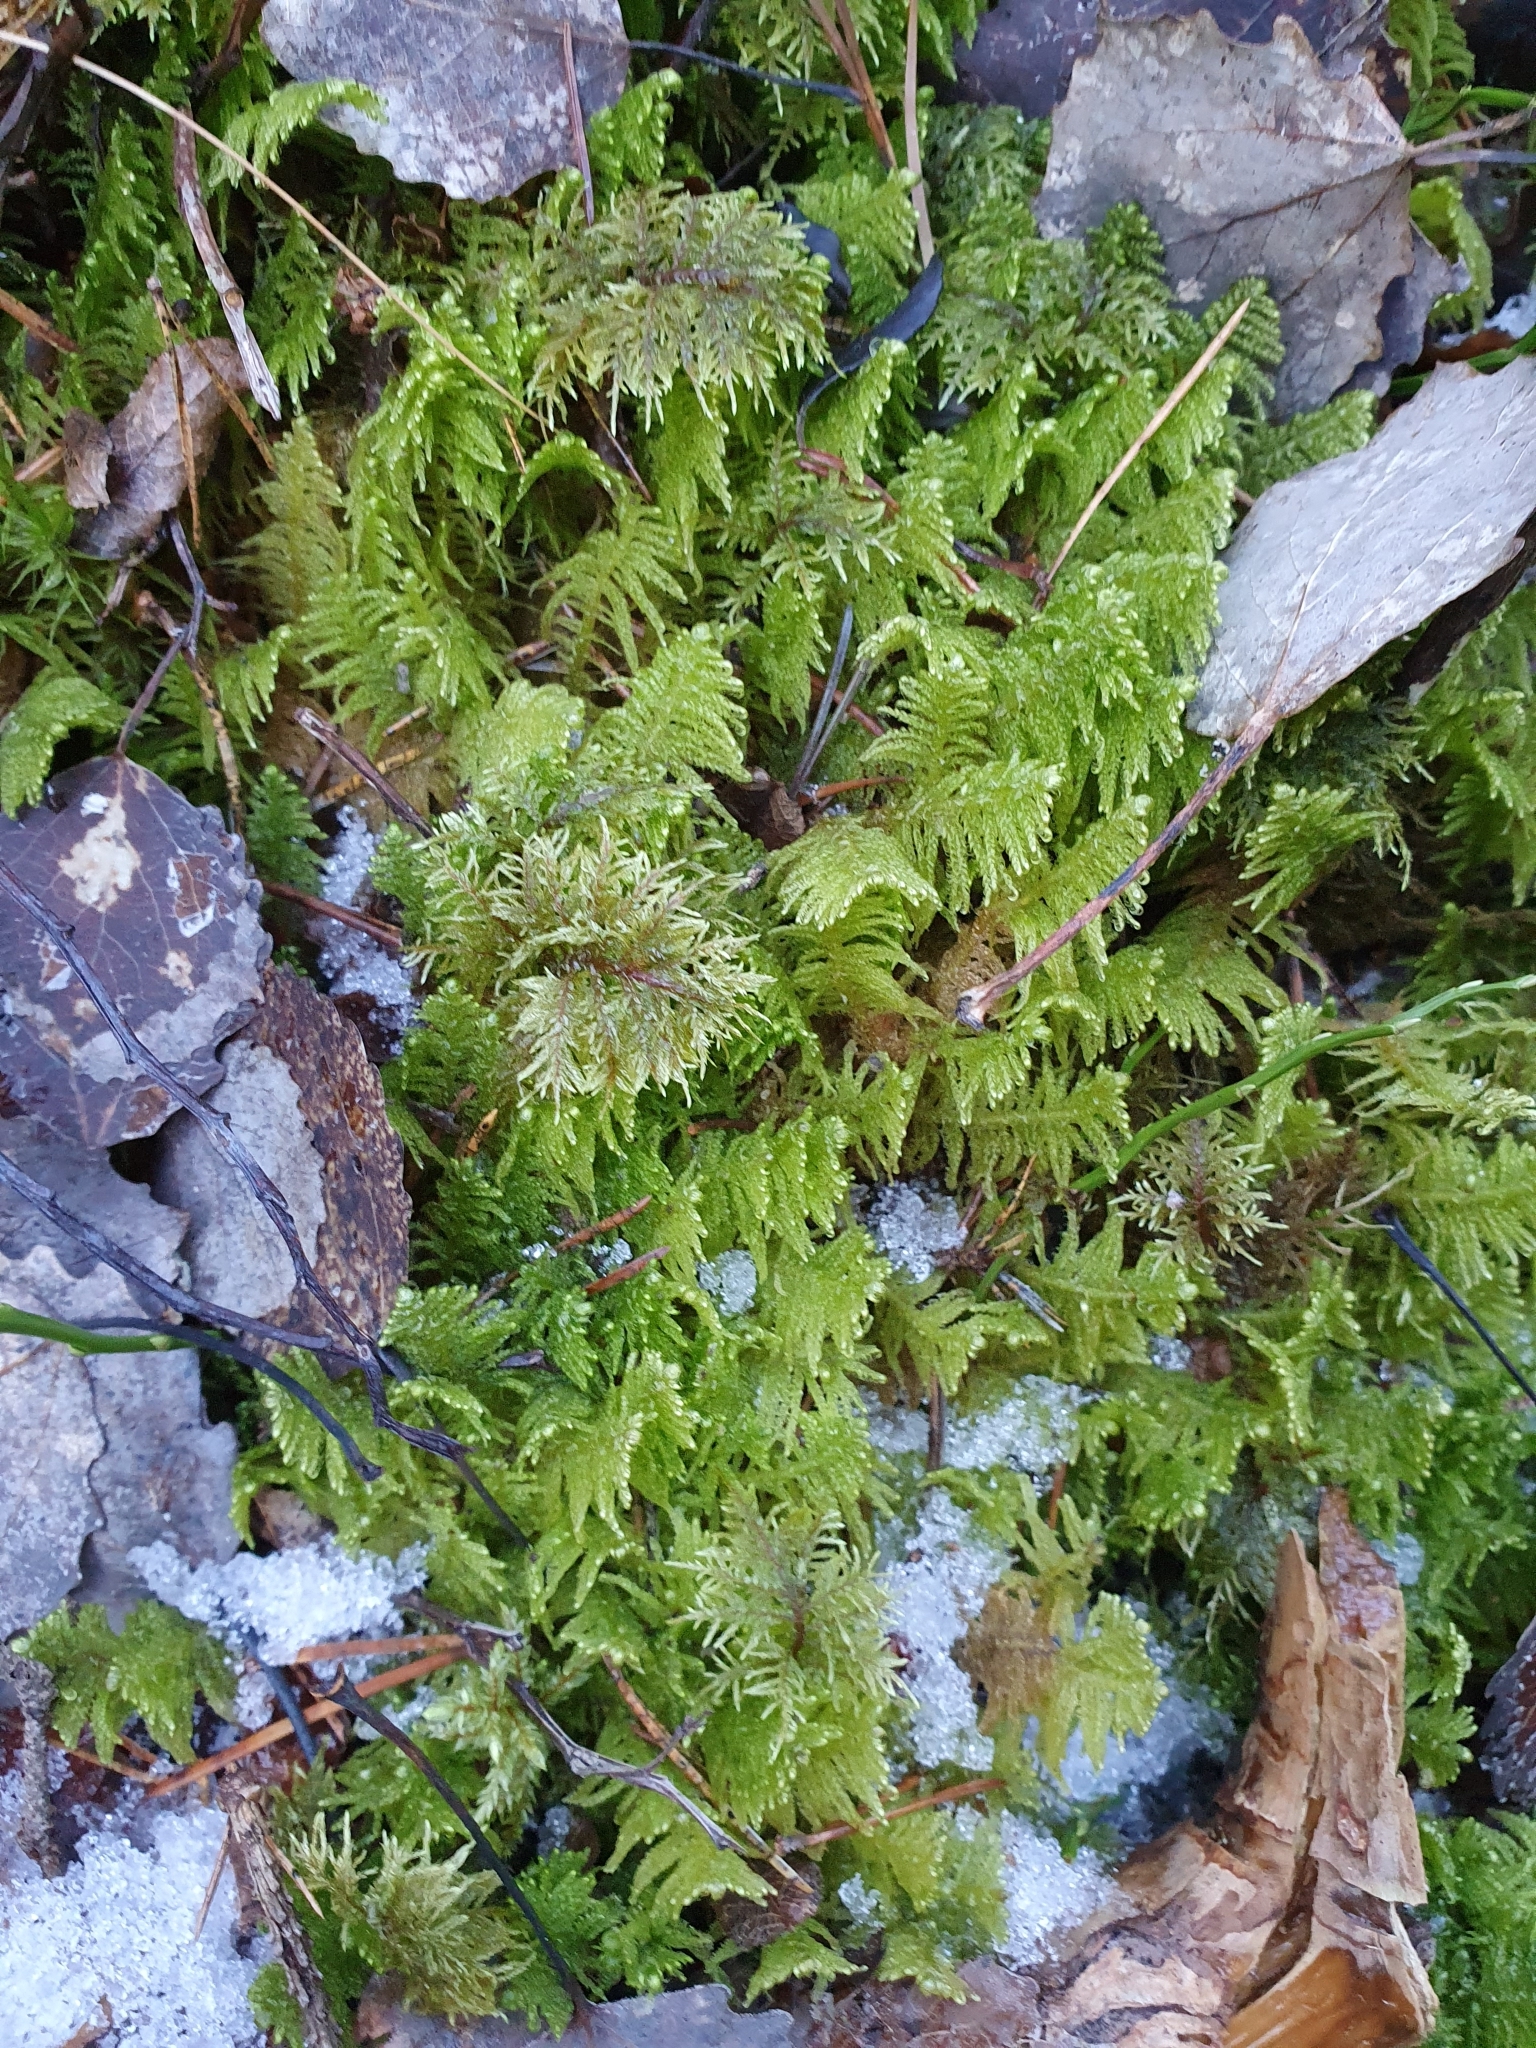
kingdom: Plantae
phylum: Bryophyta
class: Bryopsida
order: Hypnales
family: Pylaisiaceae
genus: Ptilium
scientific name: Ptilium crista-castrensis
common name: Knight's plume moss
